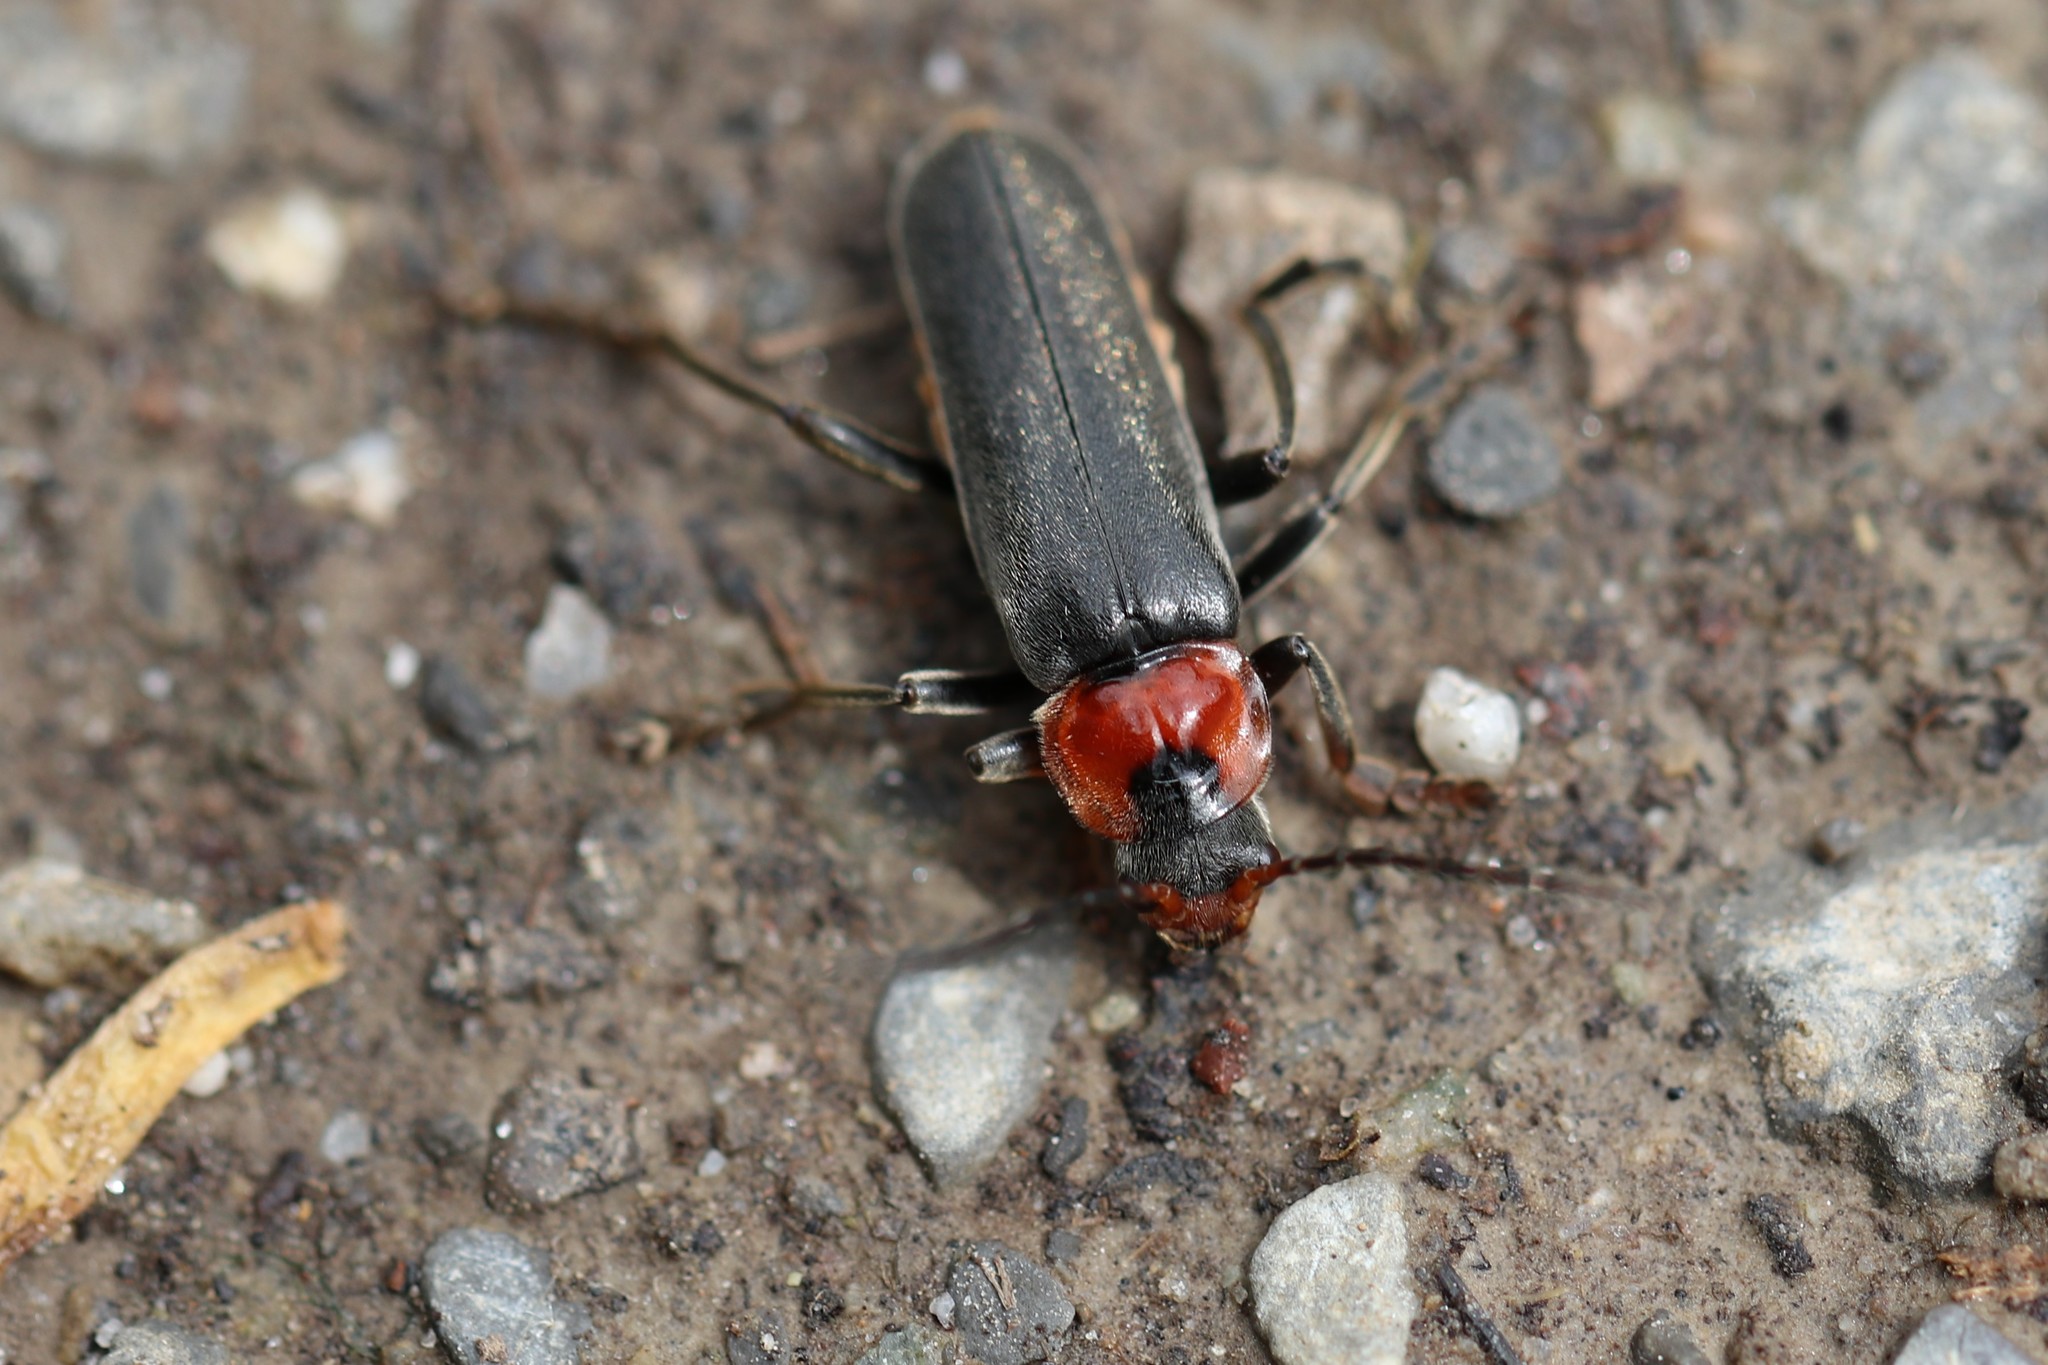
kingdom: Animalia
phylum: Arthropoda
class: Insecta
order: Coleoptera
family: Cantharidae
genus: Cantharis
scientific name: Cantharis fusca
